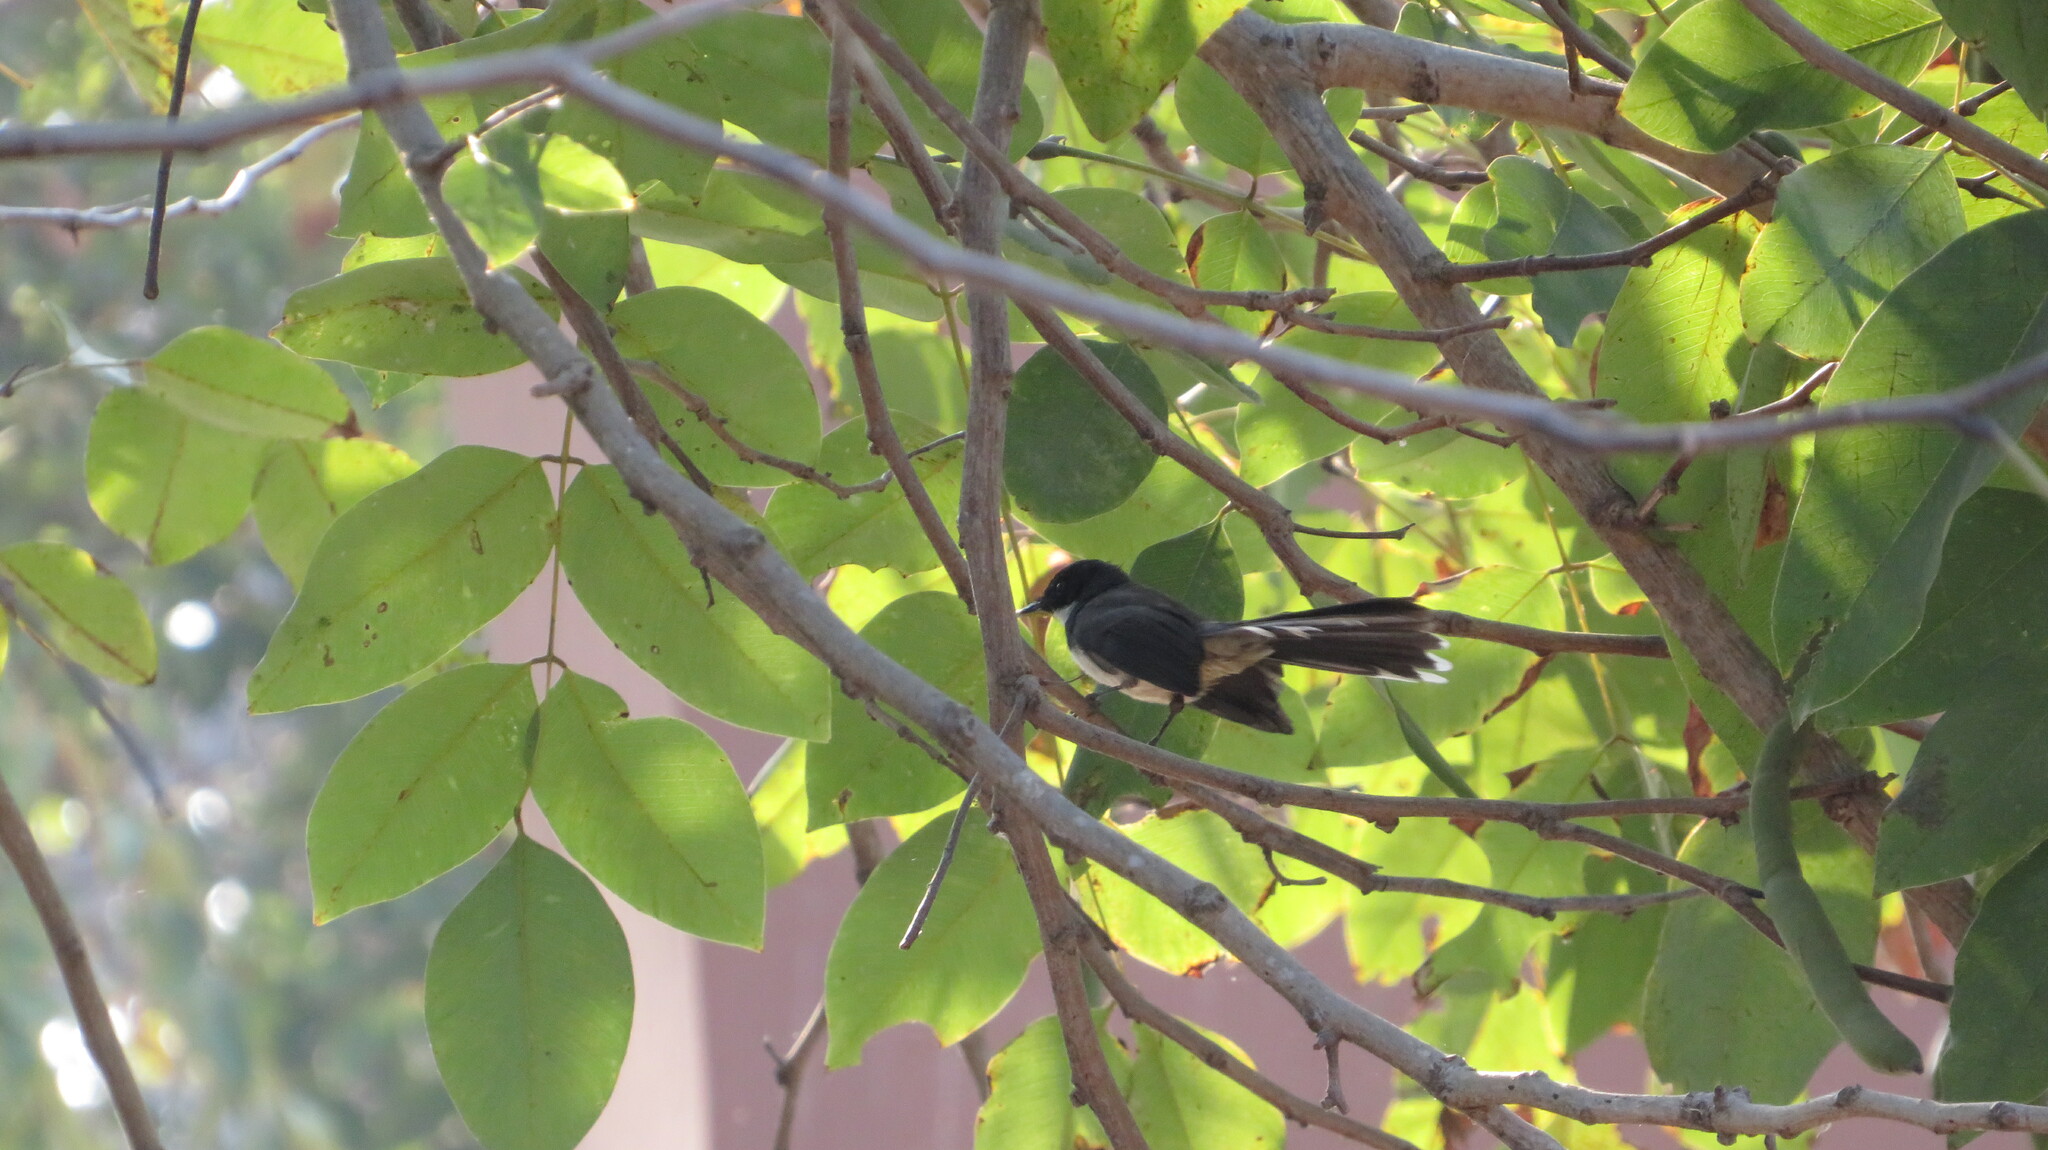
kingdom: Animalia
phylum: Chordata
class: Aves
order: Passeriformes
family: Rhipiduridae
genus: Rhipidura
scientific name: Rhipidura javanica
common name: Pied fantail
